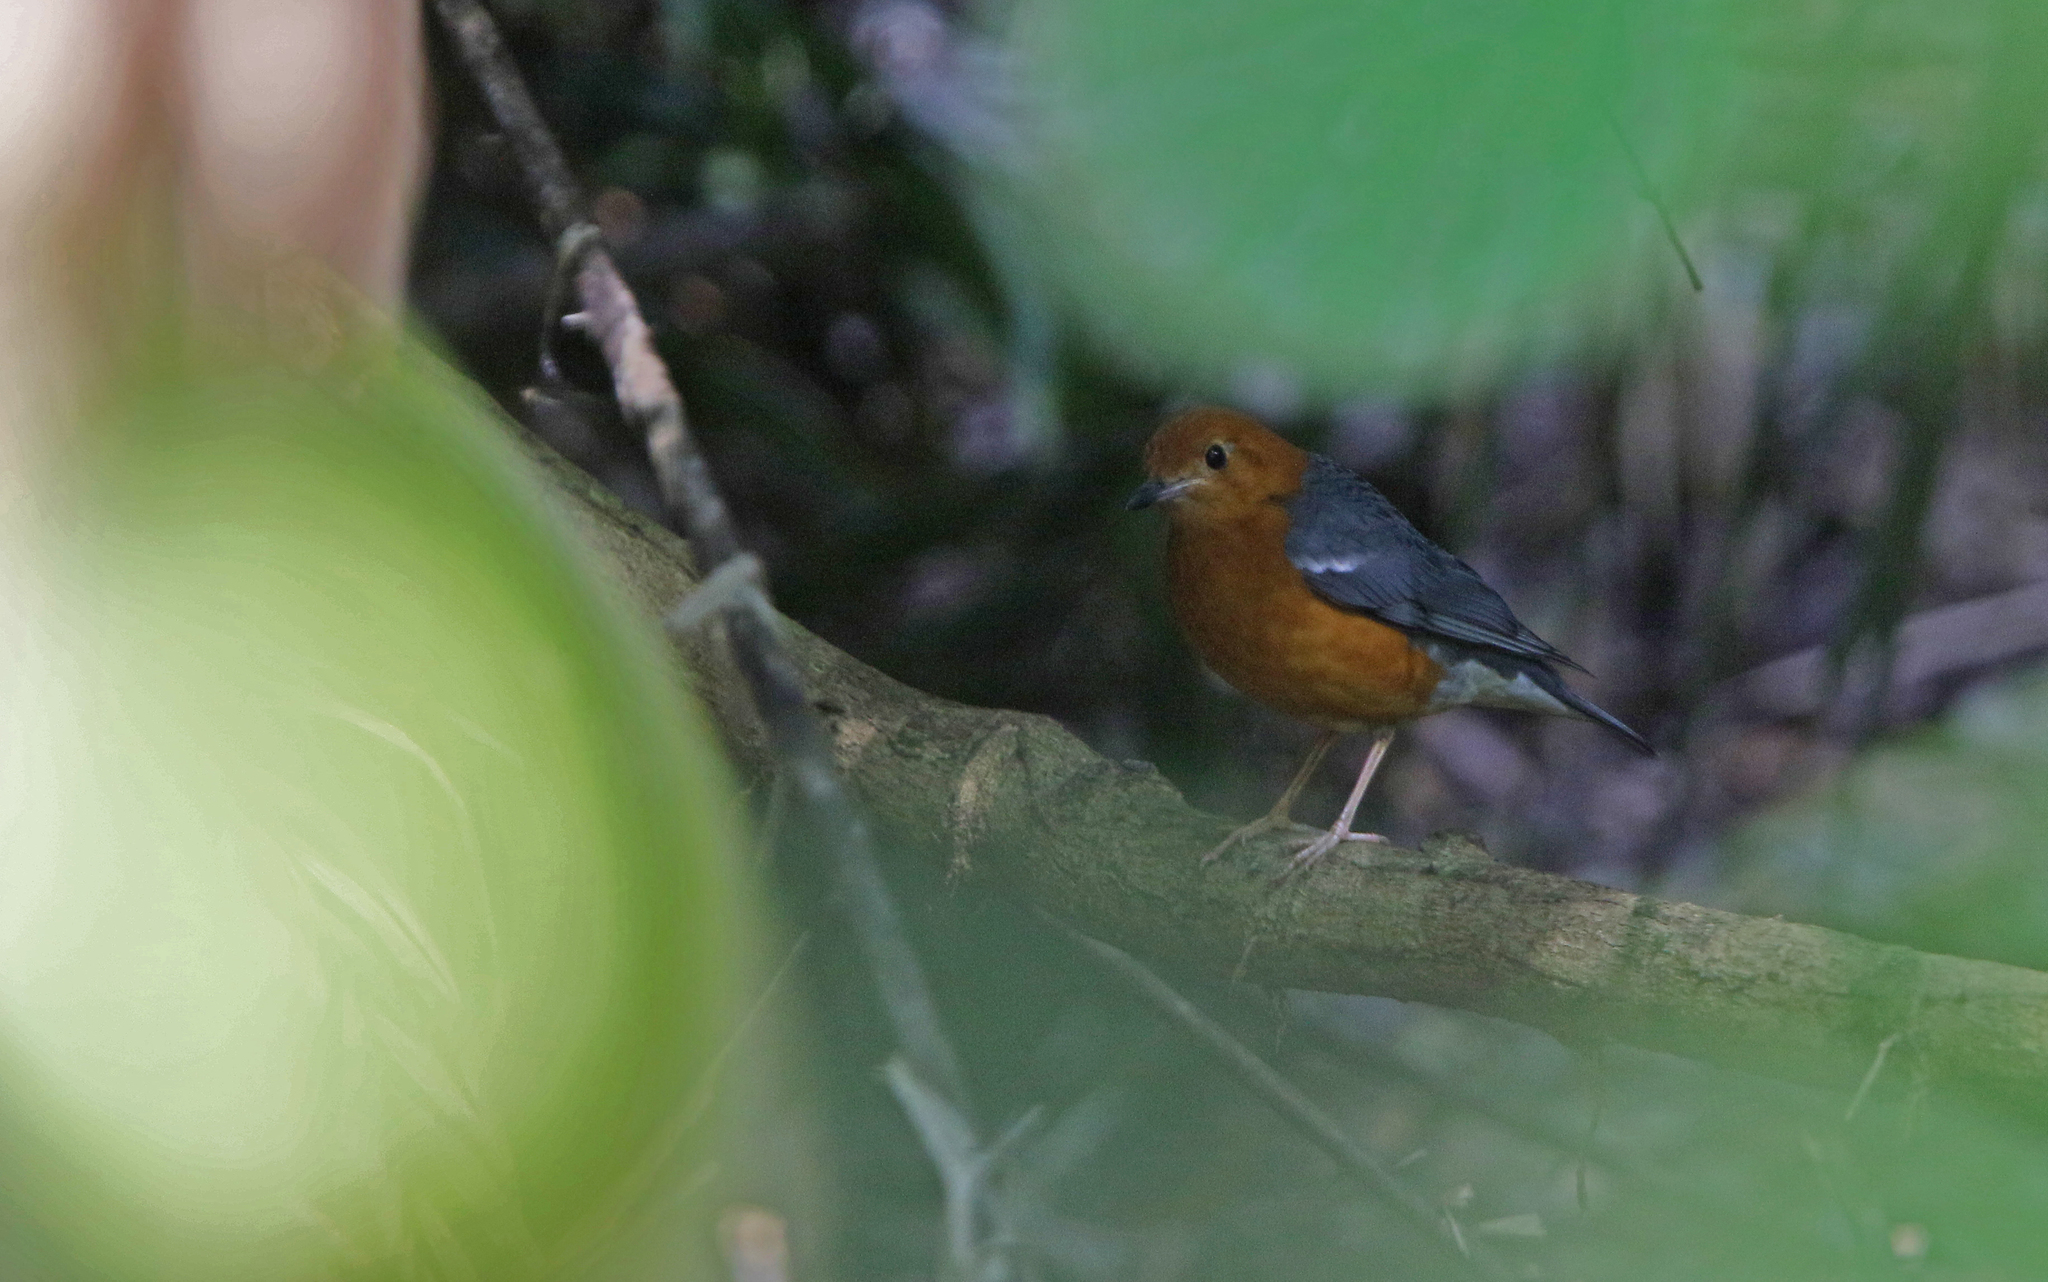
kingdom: Animalia
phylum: Chordata
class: Aves
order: Passeriformes
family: Turdidae
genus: Geokichla
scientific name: Geokichla citrina
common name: Orange-headed thrush
